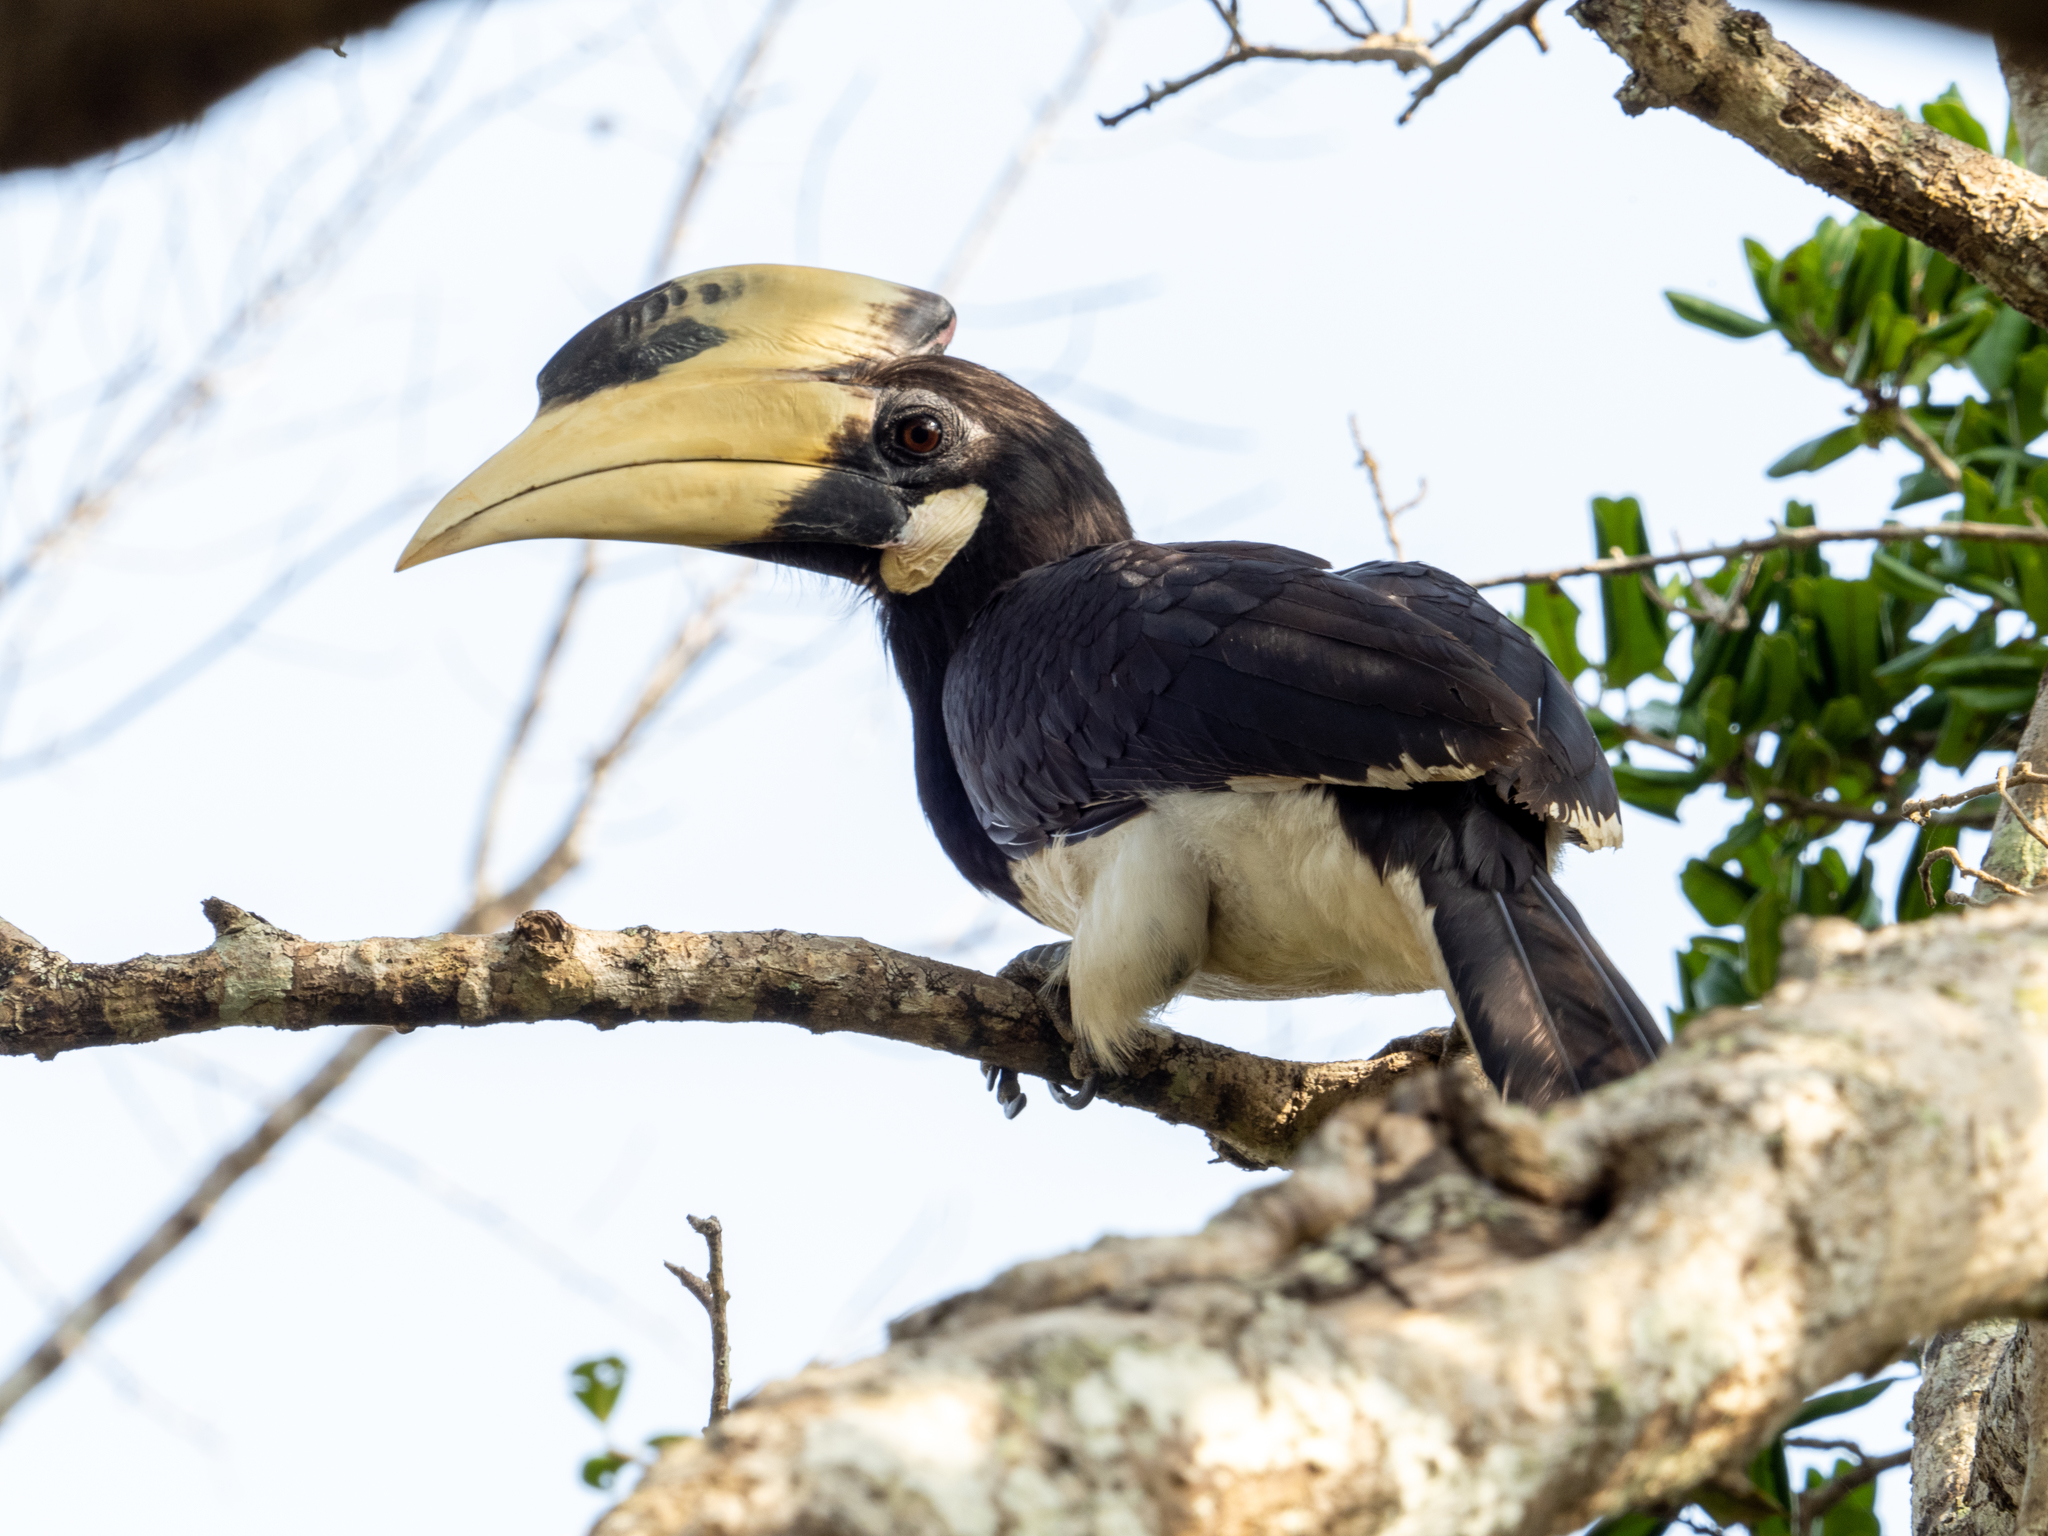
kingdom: Animalia
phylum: Chordata
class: Aves
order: Bucerotiformes
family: Bucerotidae
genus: Anthracoceros
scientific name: Anthracoceros coronatus
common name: Malabar pied hornbill
